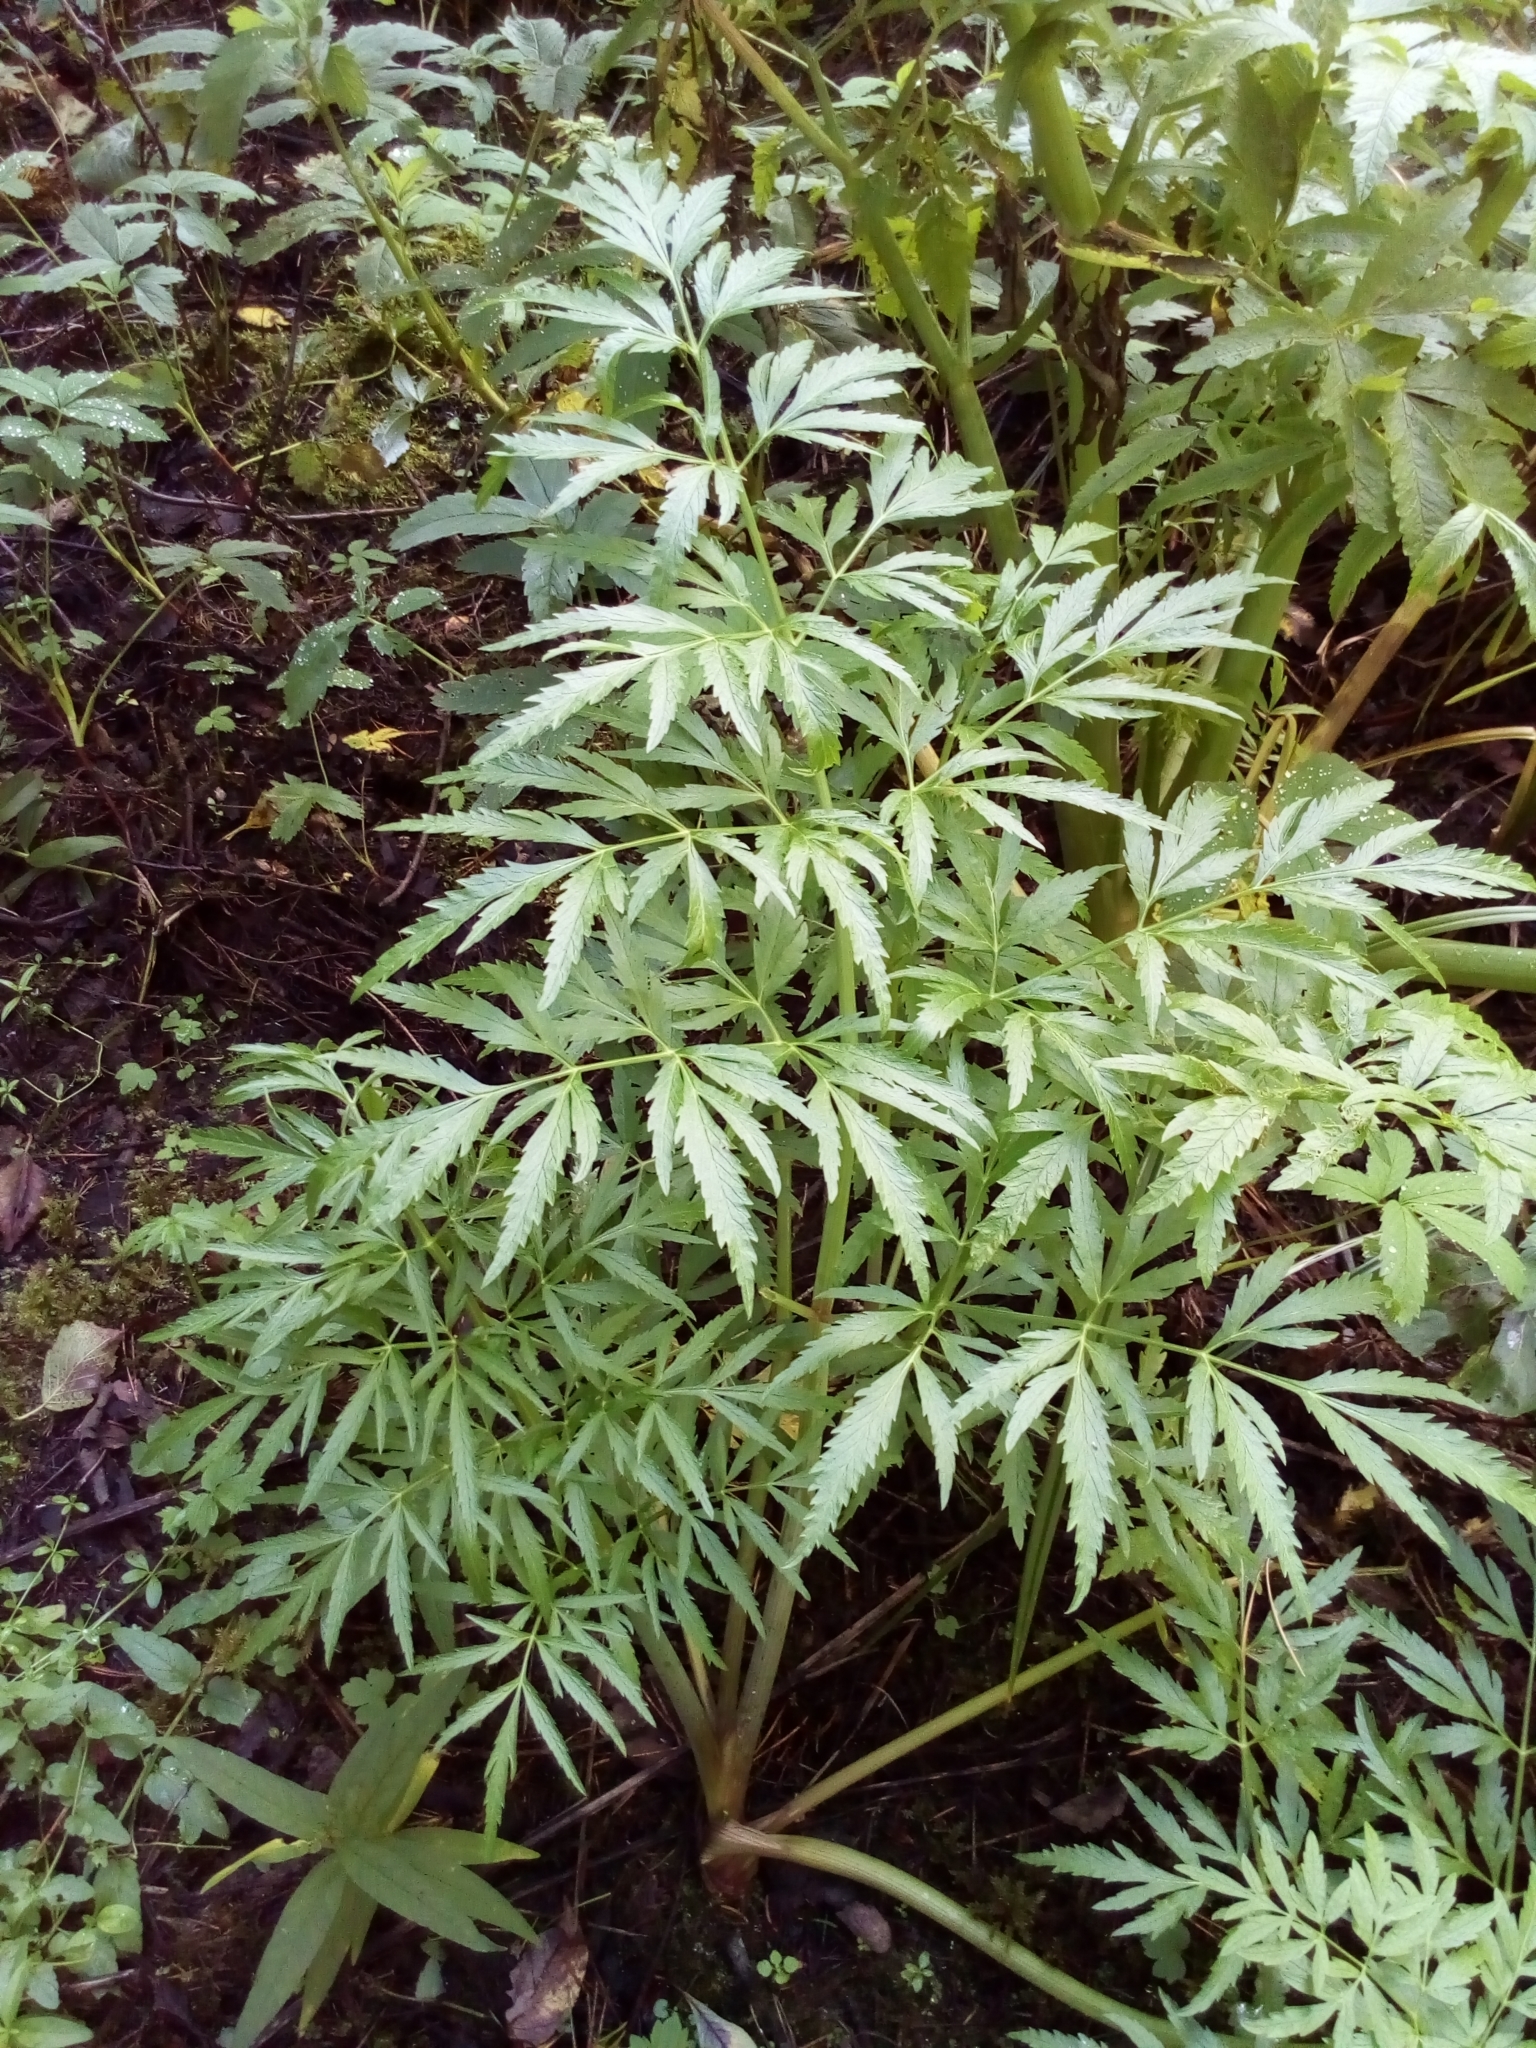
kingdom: Plantae
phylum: Tracheophyta
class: Magnoliopsida
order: Apiales
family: Apiaceae
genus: Cicuta
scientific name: Cicuta virosa
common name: Cowbane
